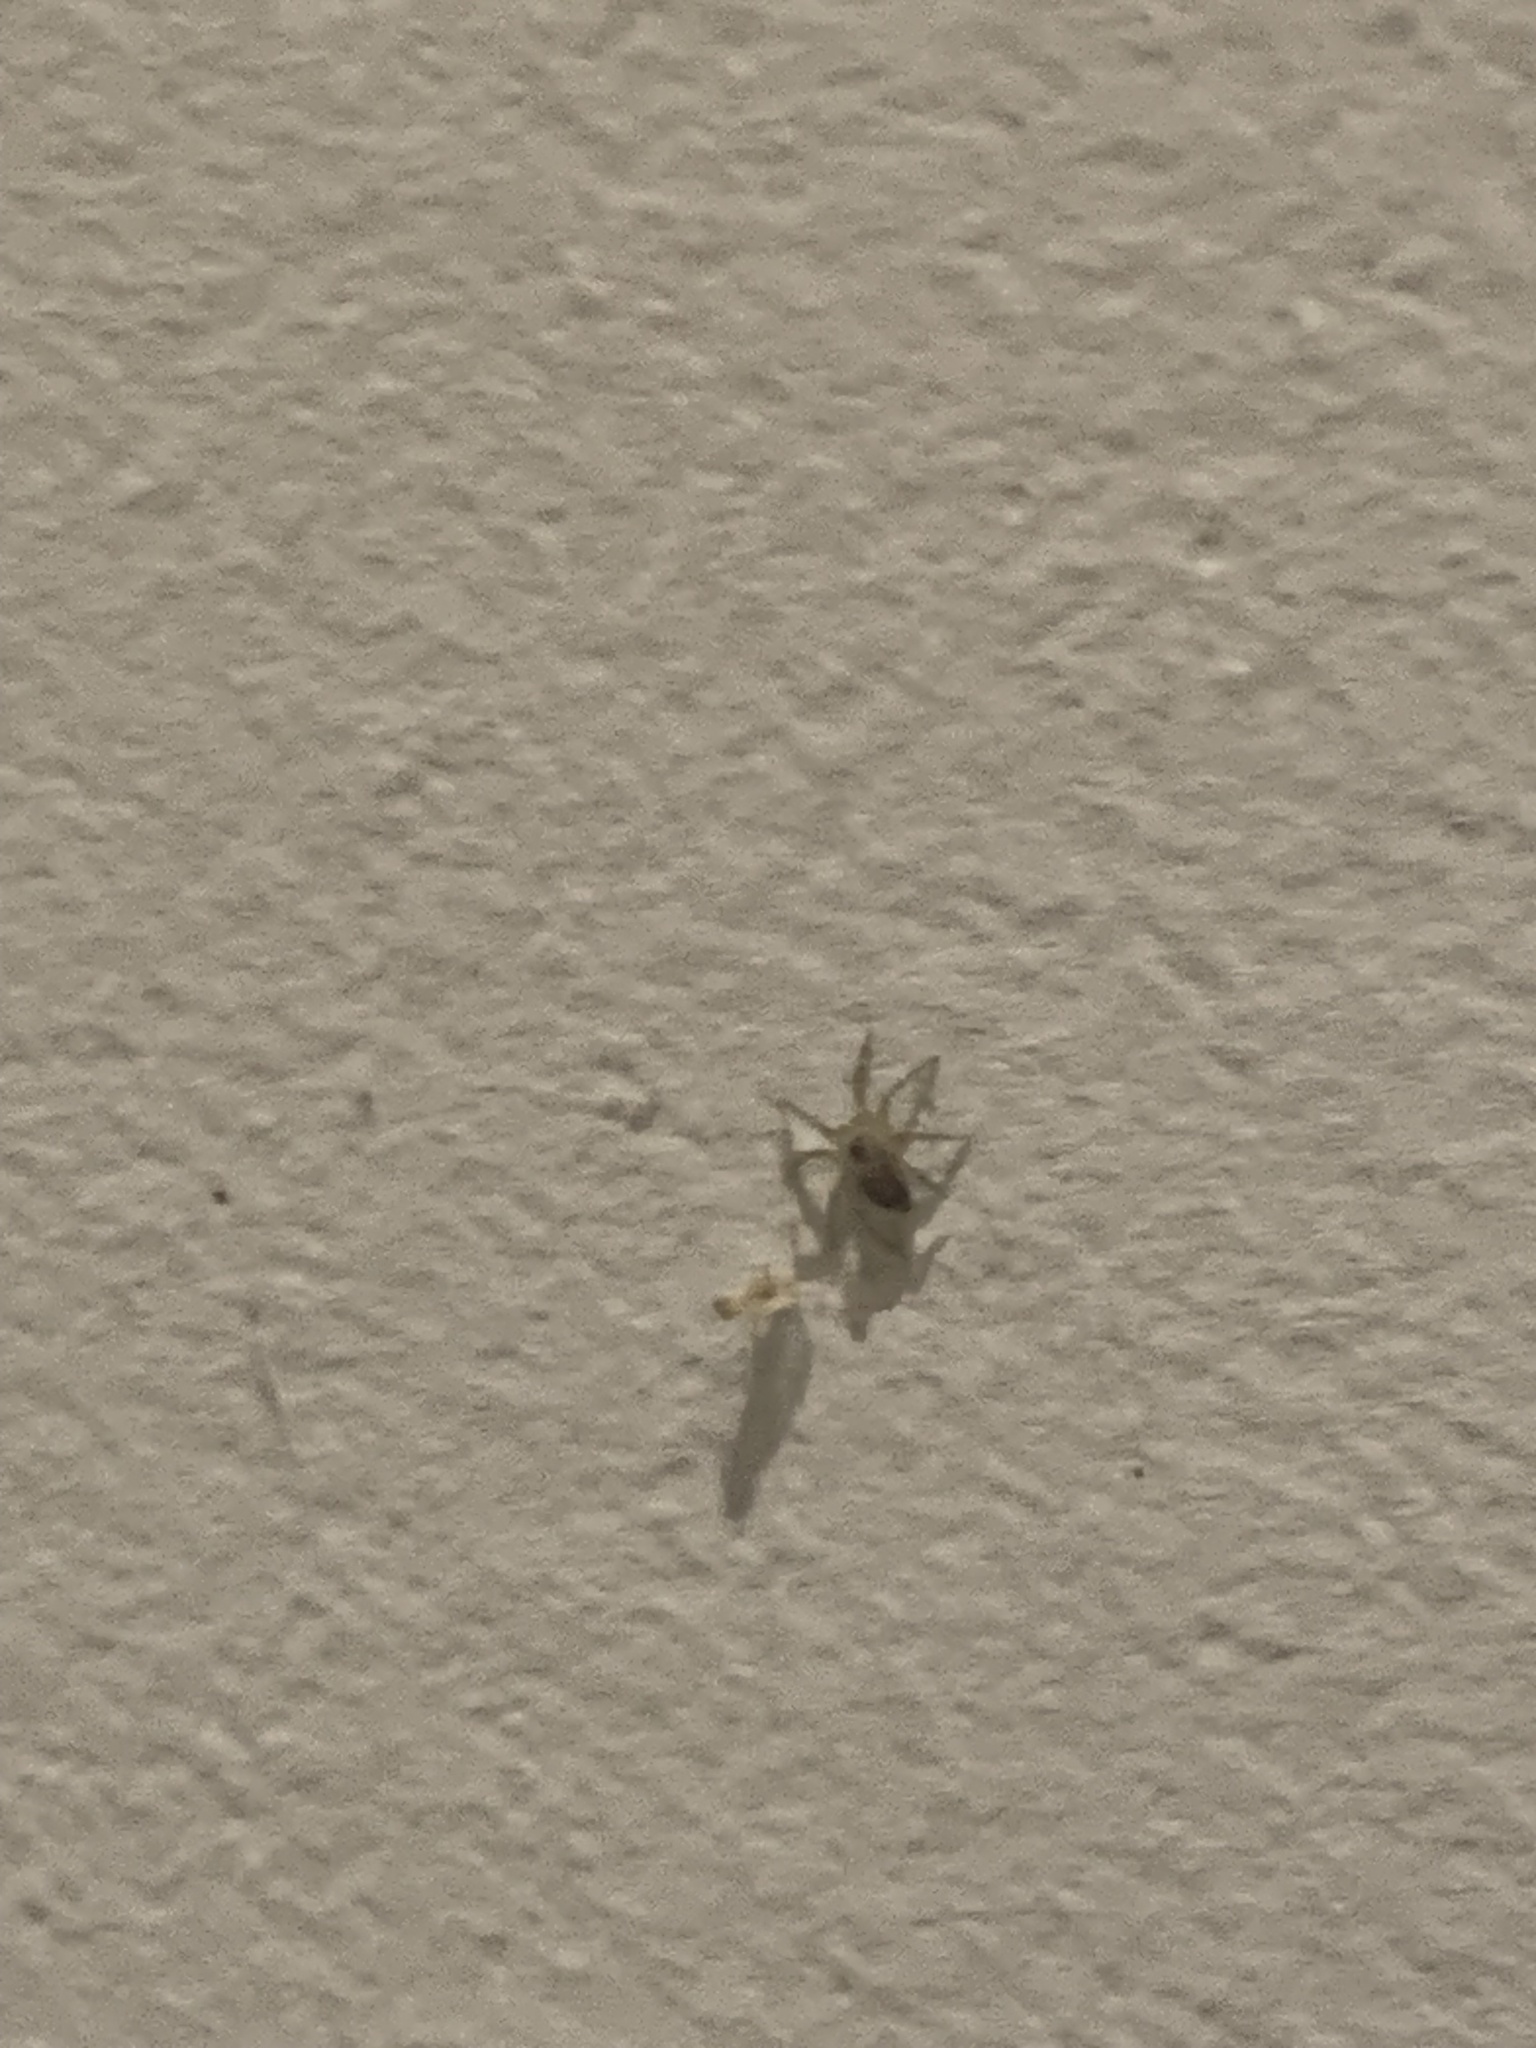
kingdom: Animalia
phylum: Arthropoda
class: Arachnida
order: Araneae
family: Oecobiidae
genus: Oecobius
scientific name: Oecobius navus
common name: Flatmesh weaver
